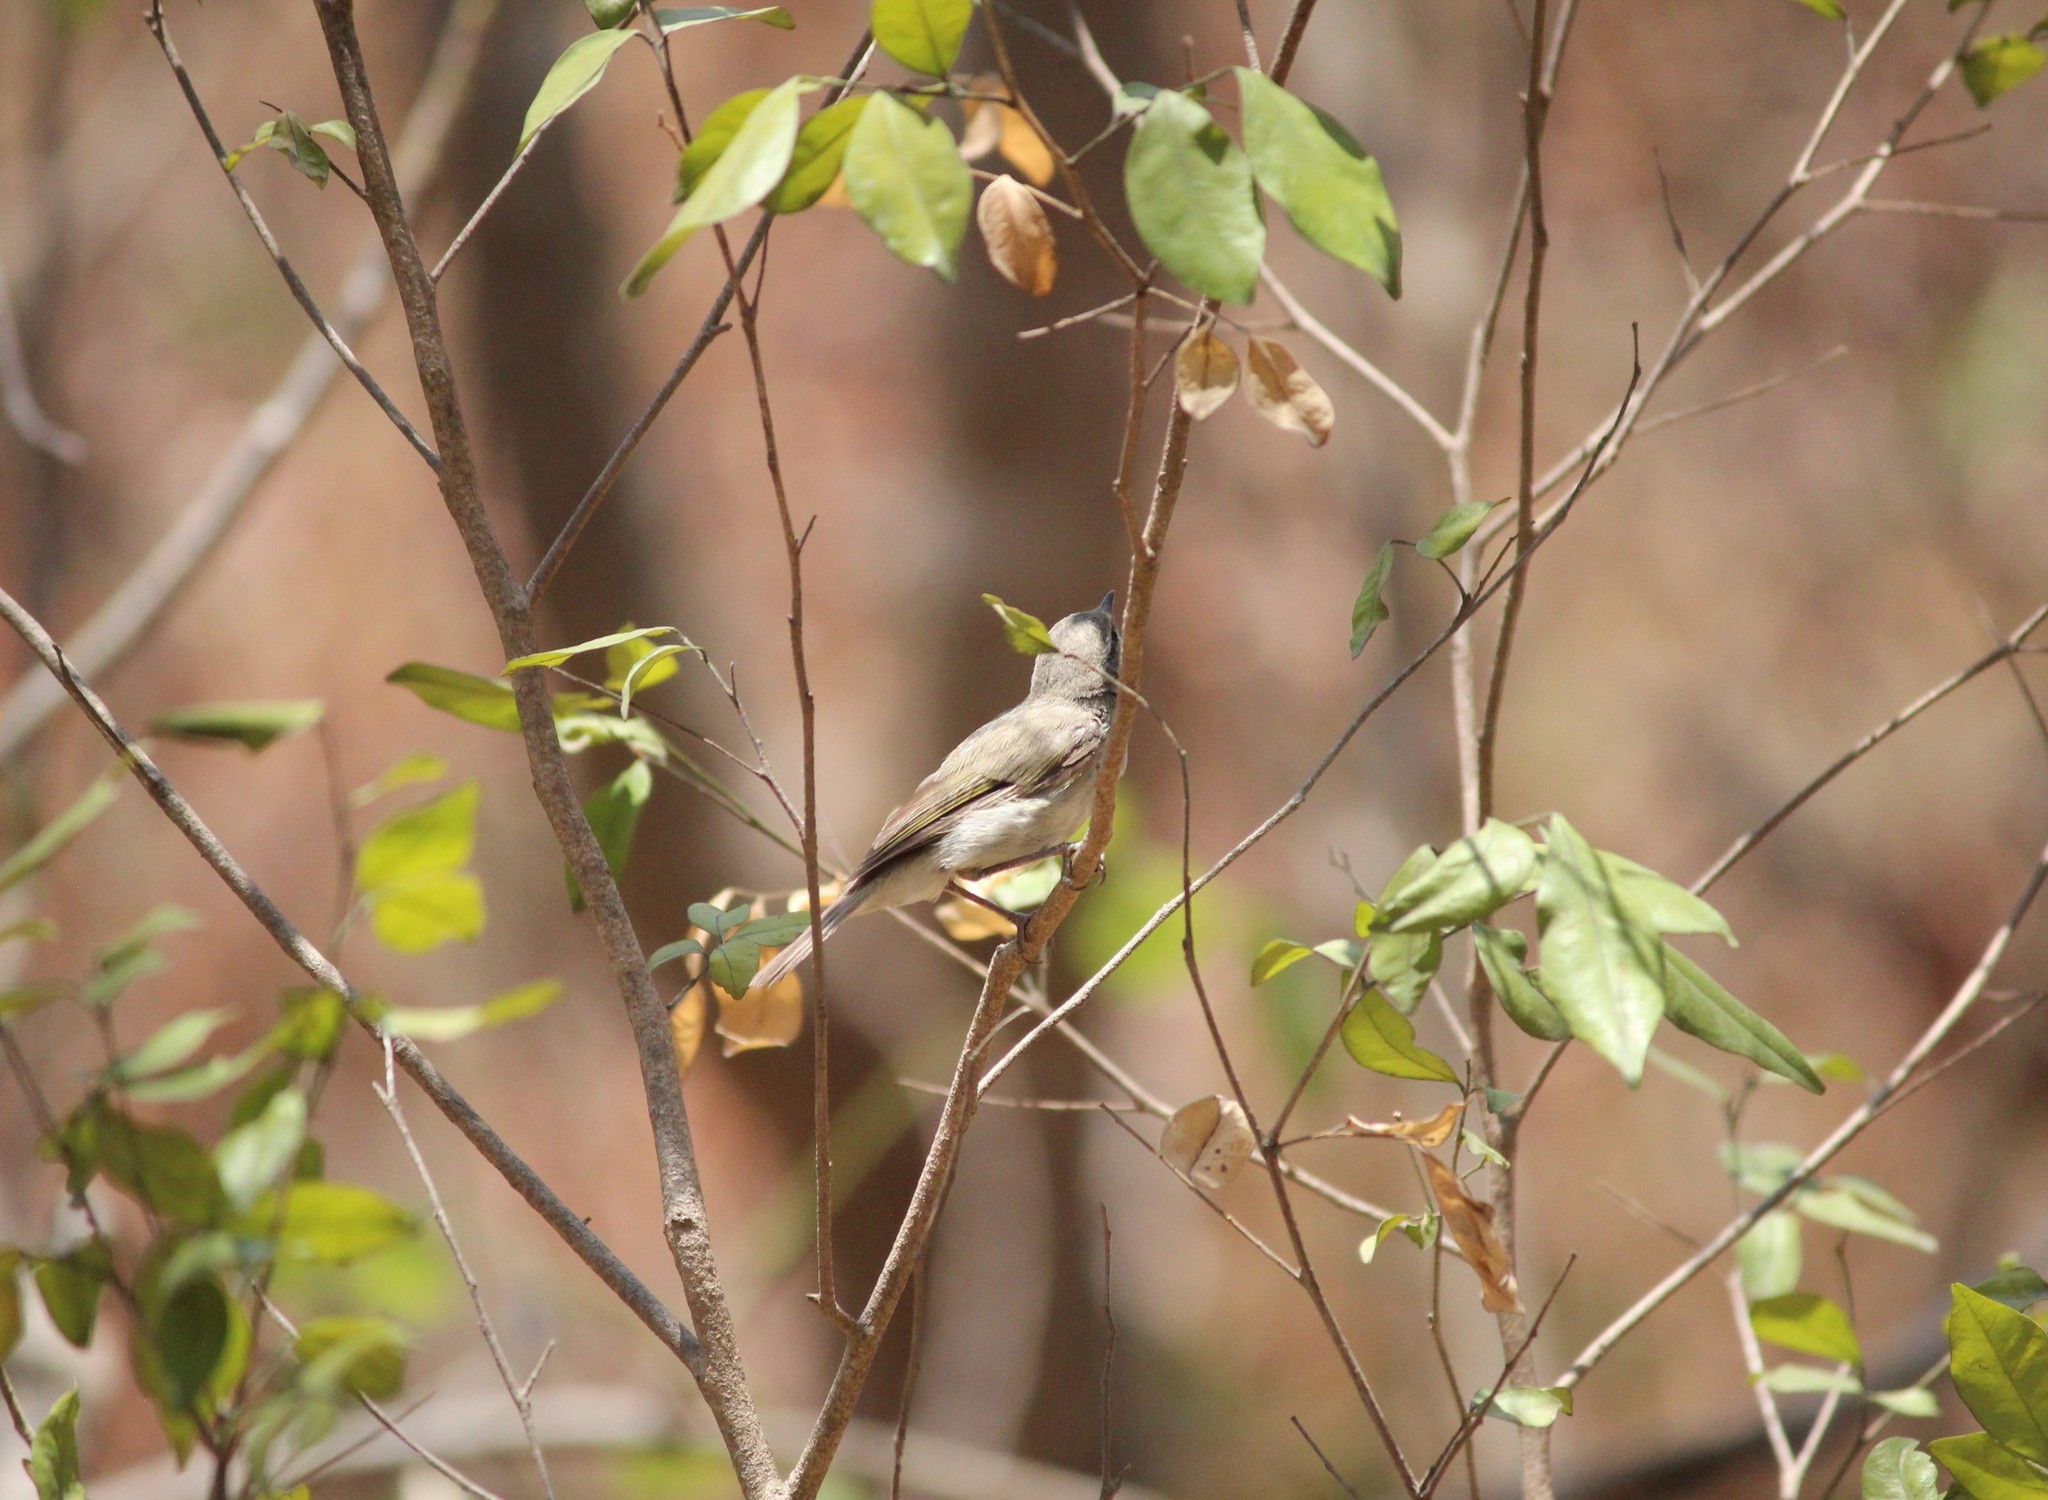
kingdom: Animalia
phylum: Chordata
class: Aves
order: Passeriformes
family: Phylloscopidae
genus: Phylloscopus
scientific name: Phylloscopus trochiloides
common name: Greenish warbler
